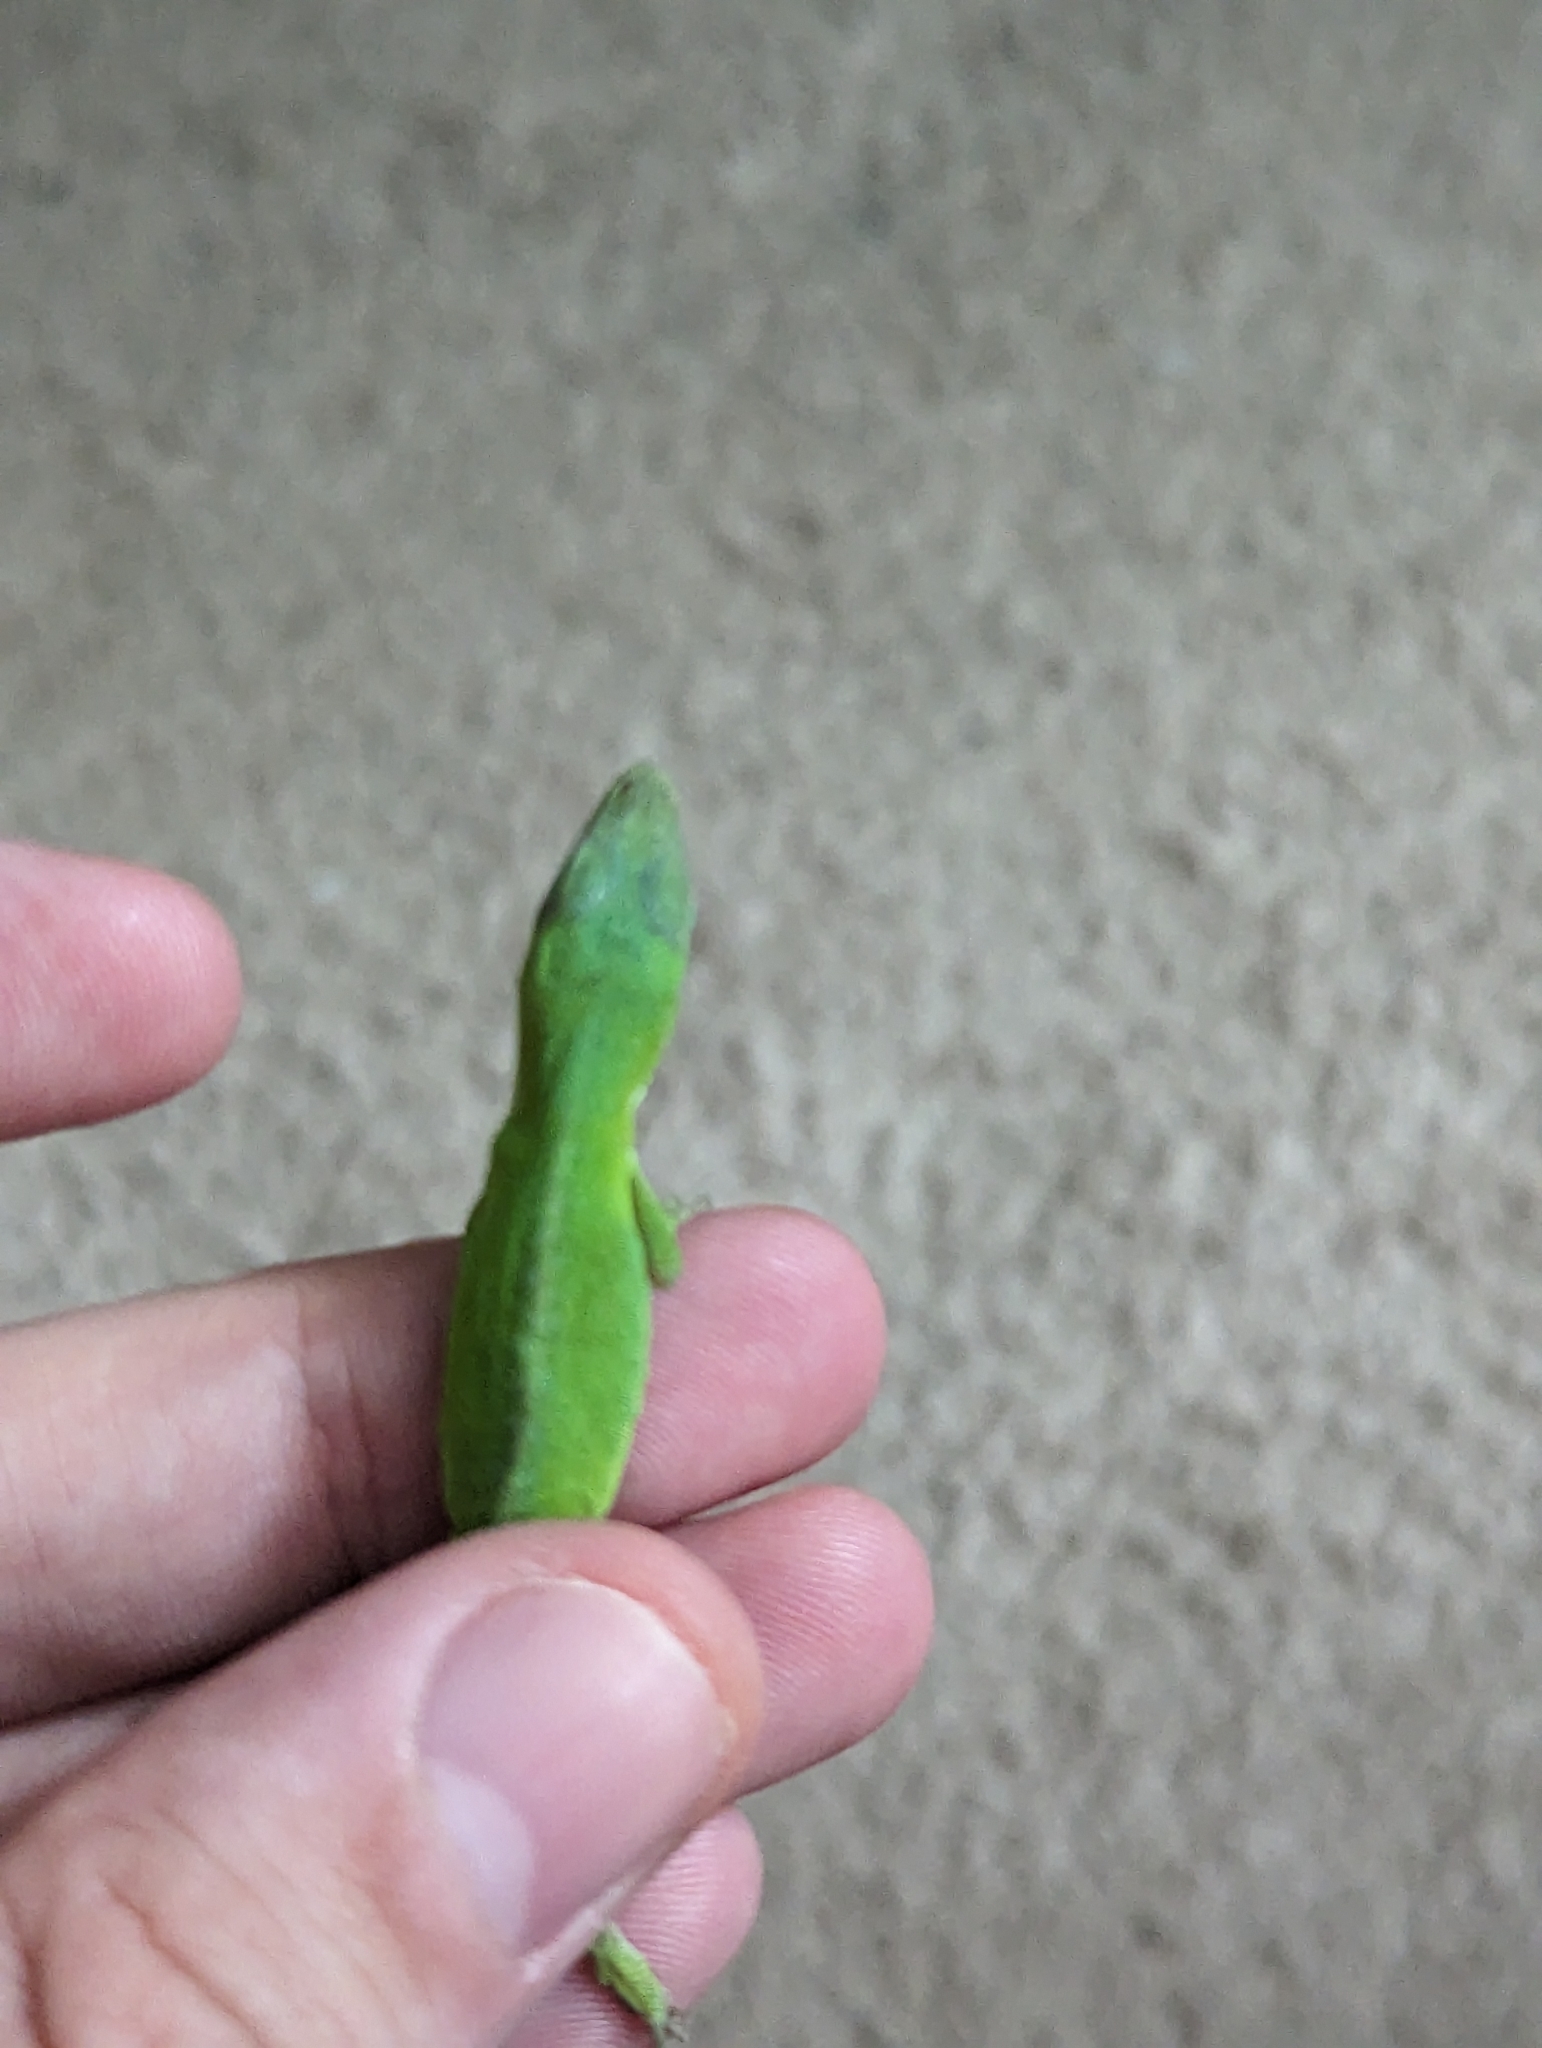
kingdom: Animalia
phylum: Chordata
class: Squamata
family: Dactyloidae
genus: Anolis
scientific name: Anolis carolinensis
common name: Green anole
